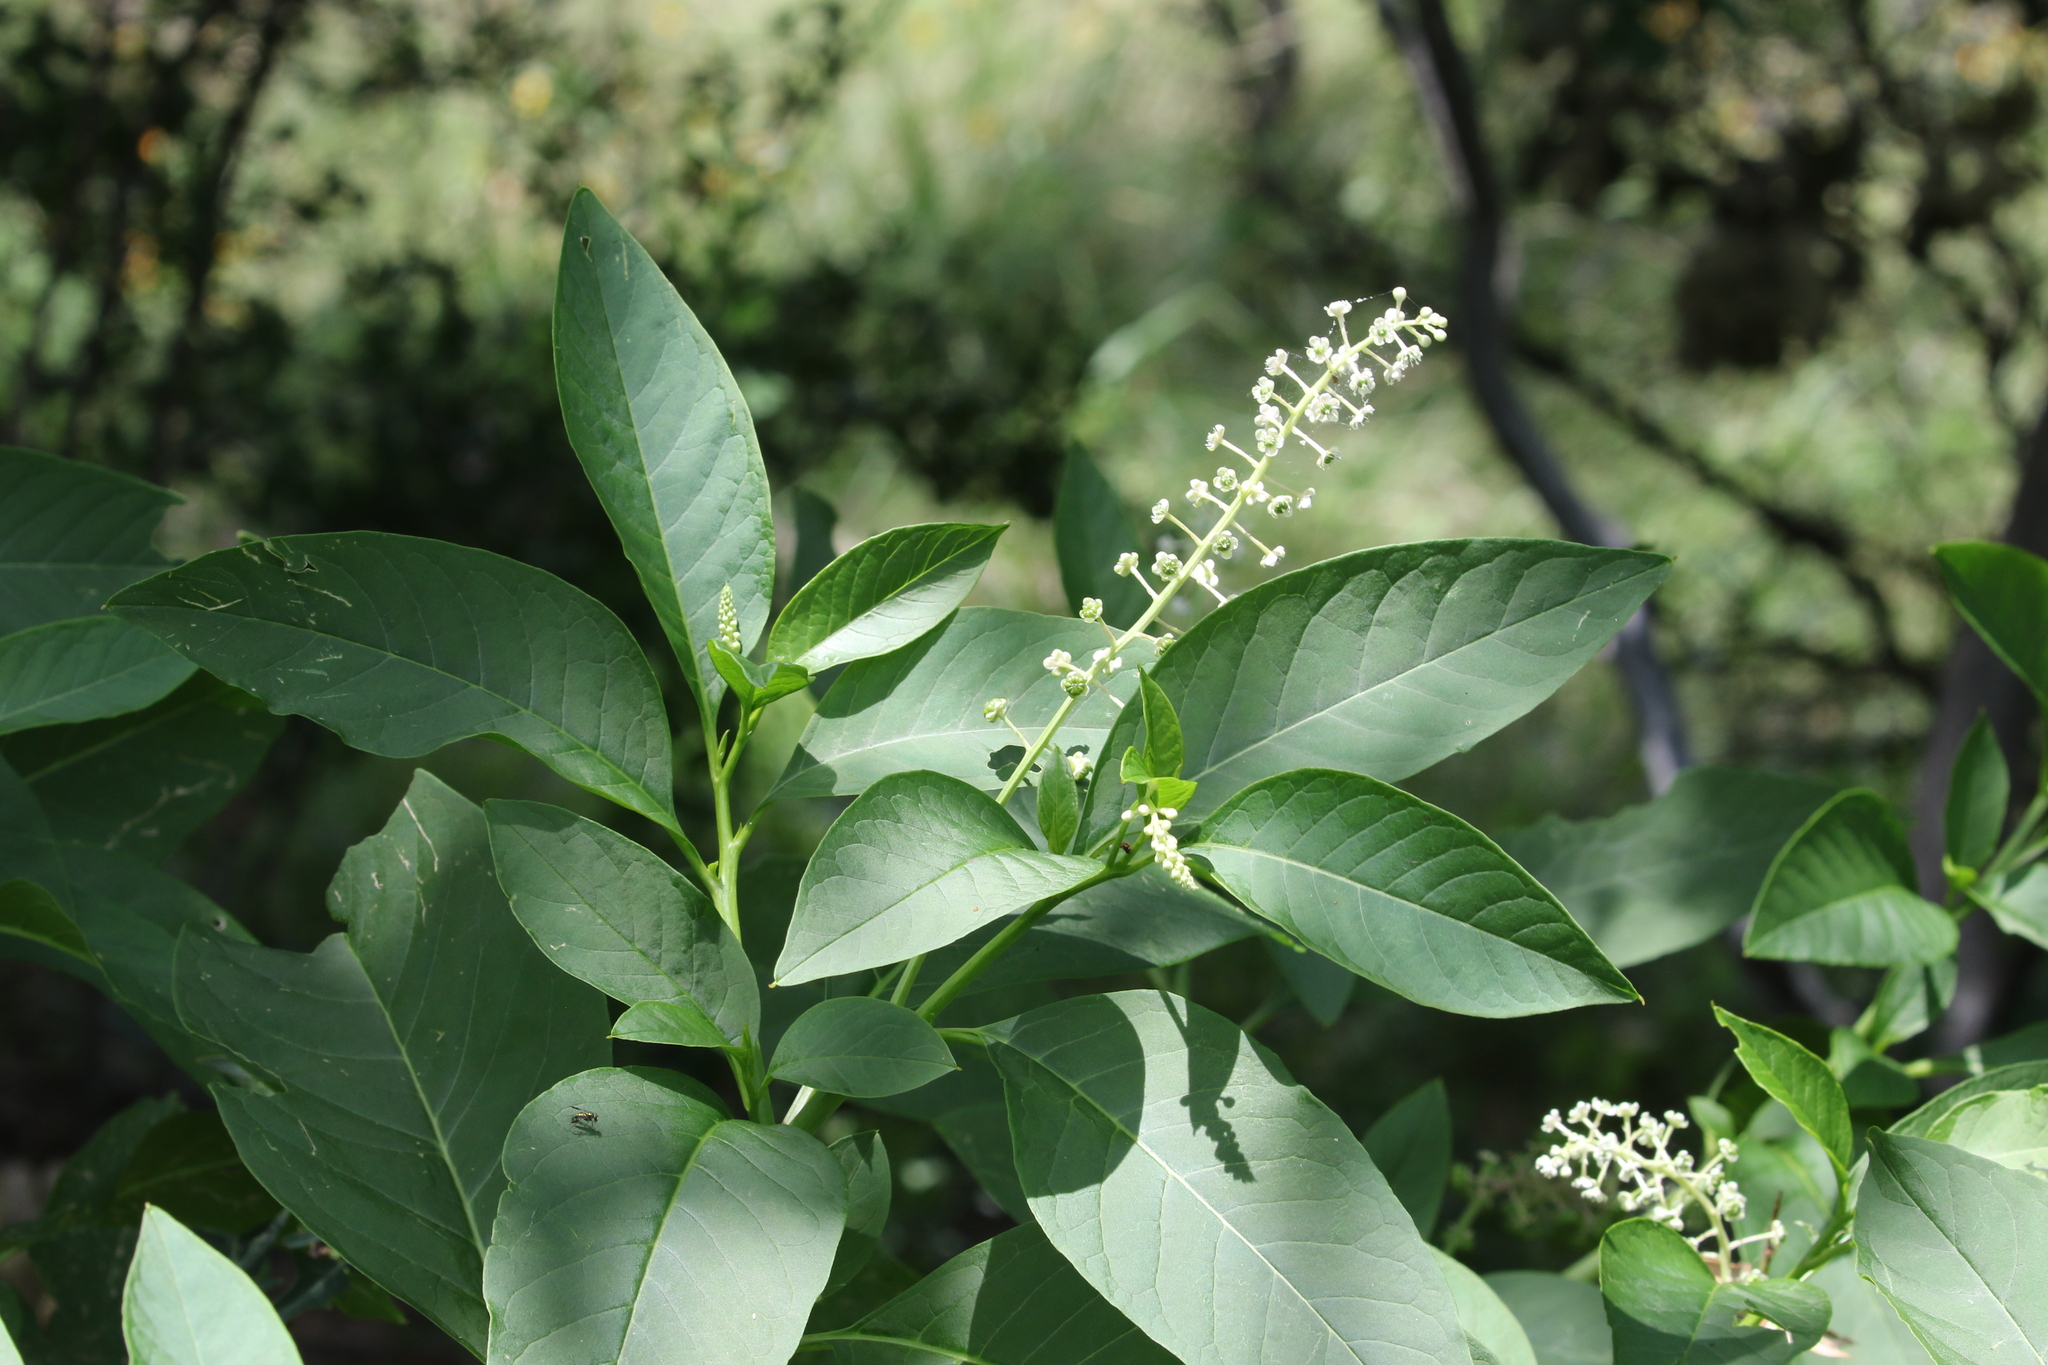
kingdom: Plantae
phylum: Tracheophyta
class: Magnoliopsida
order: Caryophyllales
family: Phytolaccaceae
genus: Phytolacca
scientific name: Phytolacca americana
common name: American pokeweed
